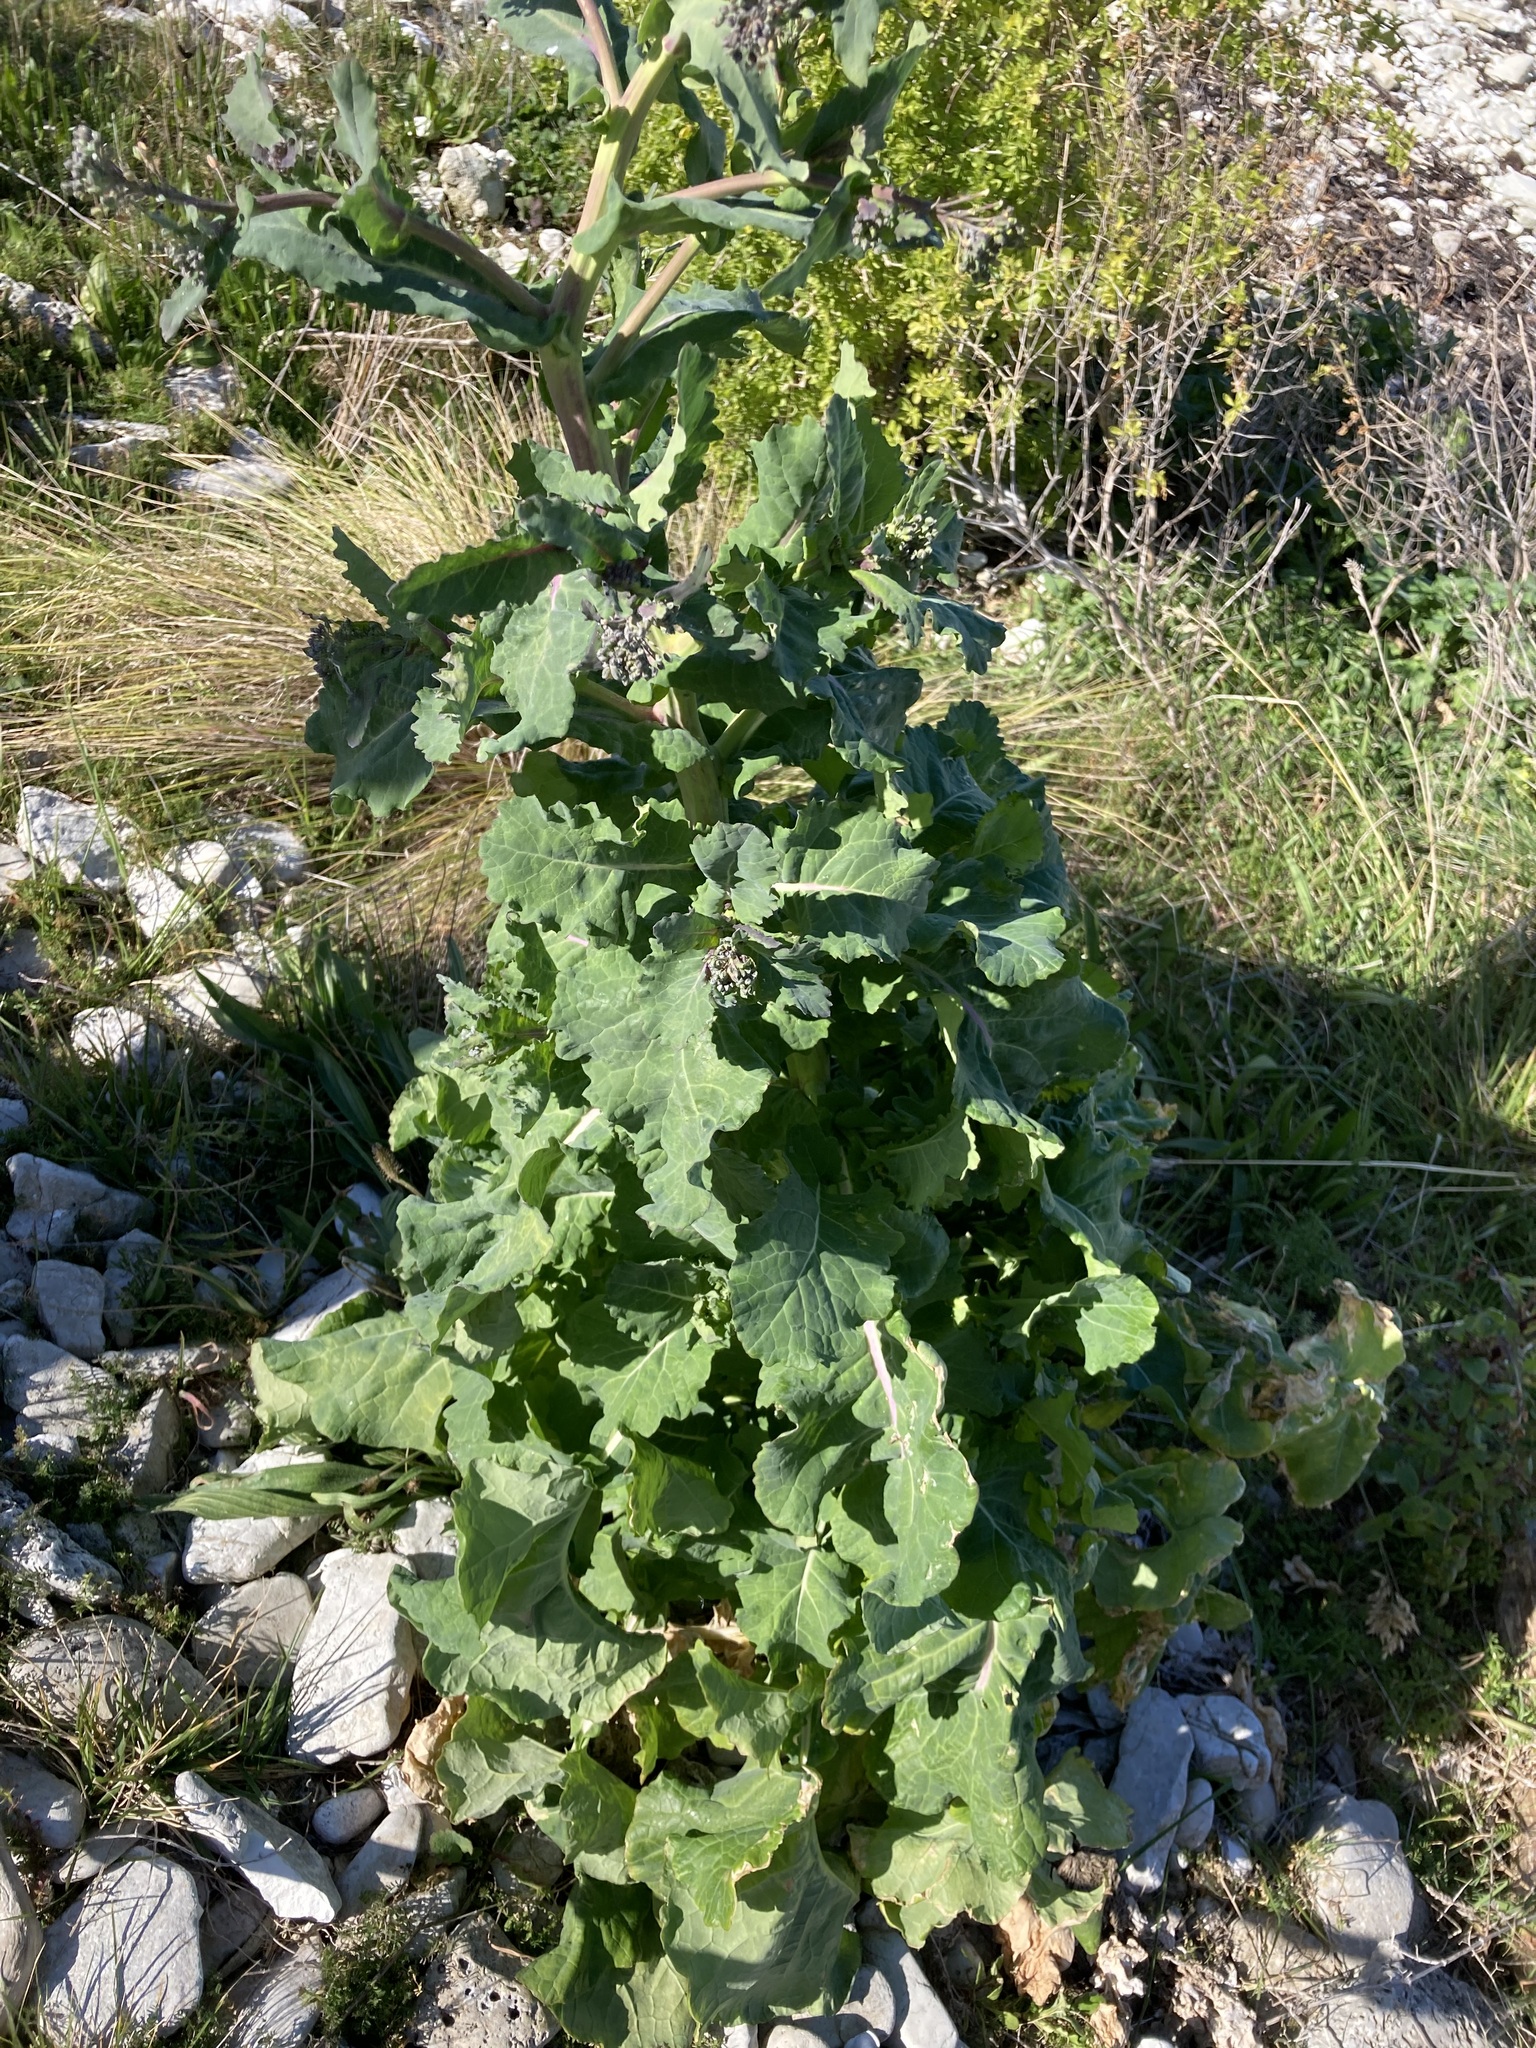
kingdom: Plantae
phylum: Tracheophyta
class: Magnoliopsida
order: Brassicales
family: Brassicaceae
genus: Brassica
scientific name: Brassica oleracea
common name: Cabbage
